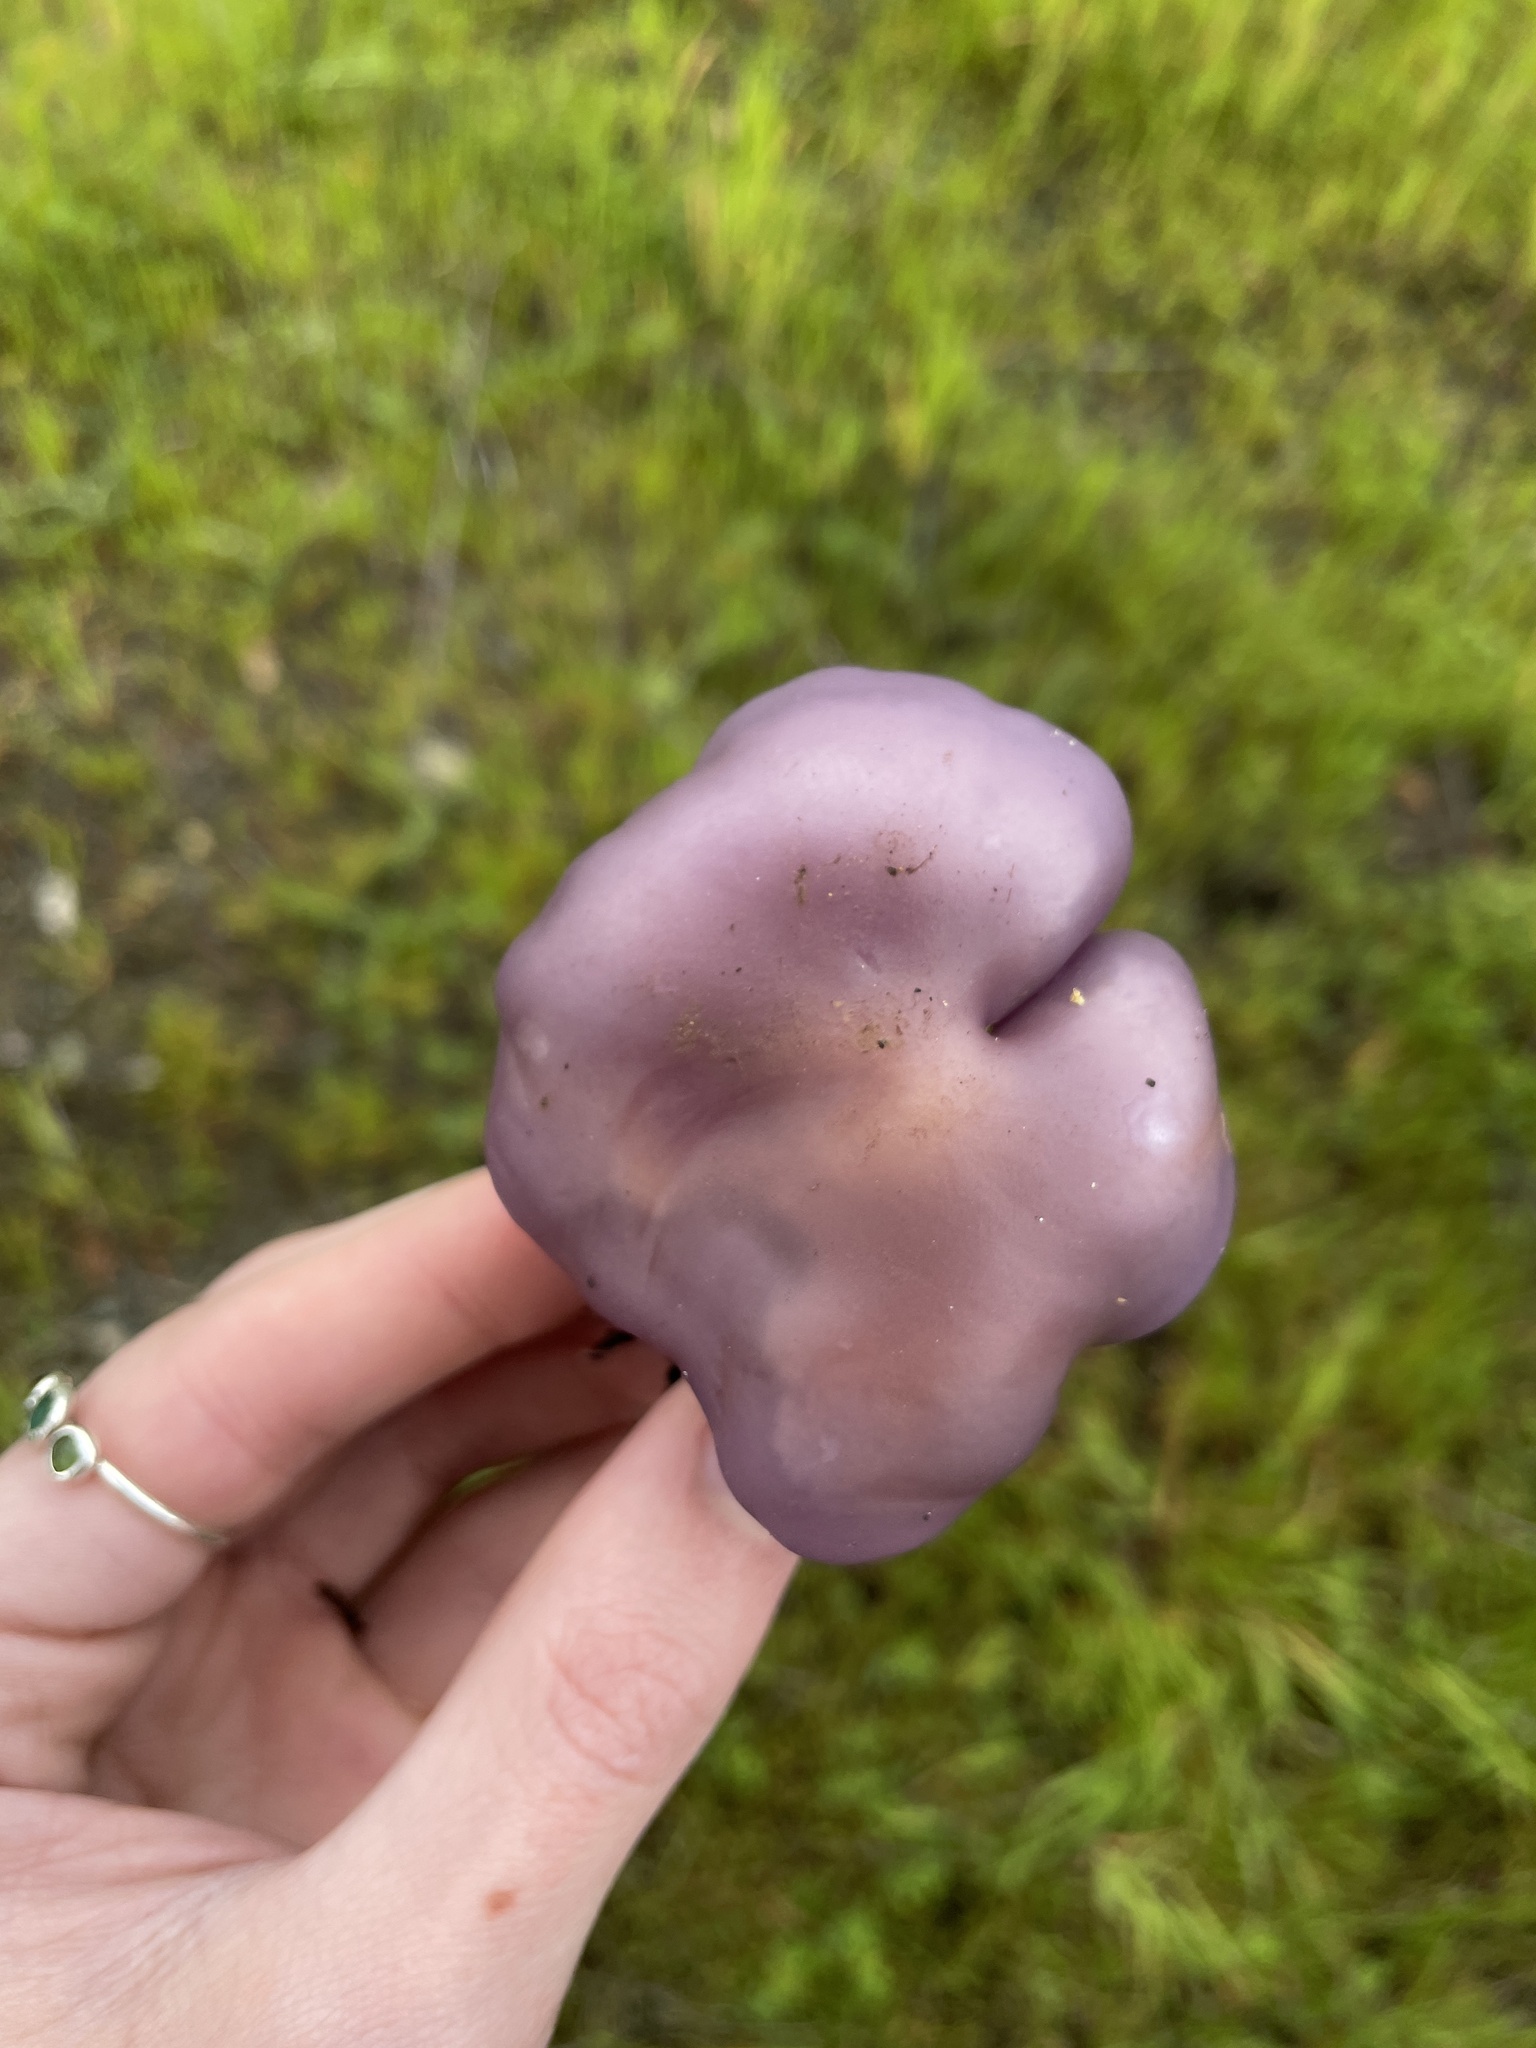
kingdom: Fungi
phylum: Basidiomycota
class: Agaricomycetes
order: Agaricales
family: Tricholomataceae
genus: Collybia
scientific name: Collybia
